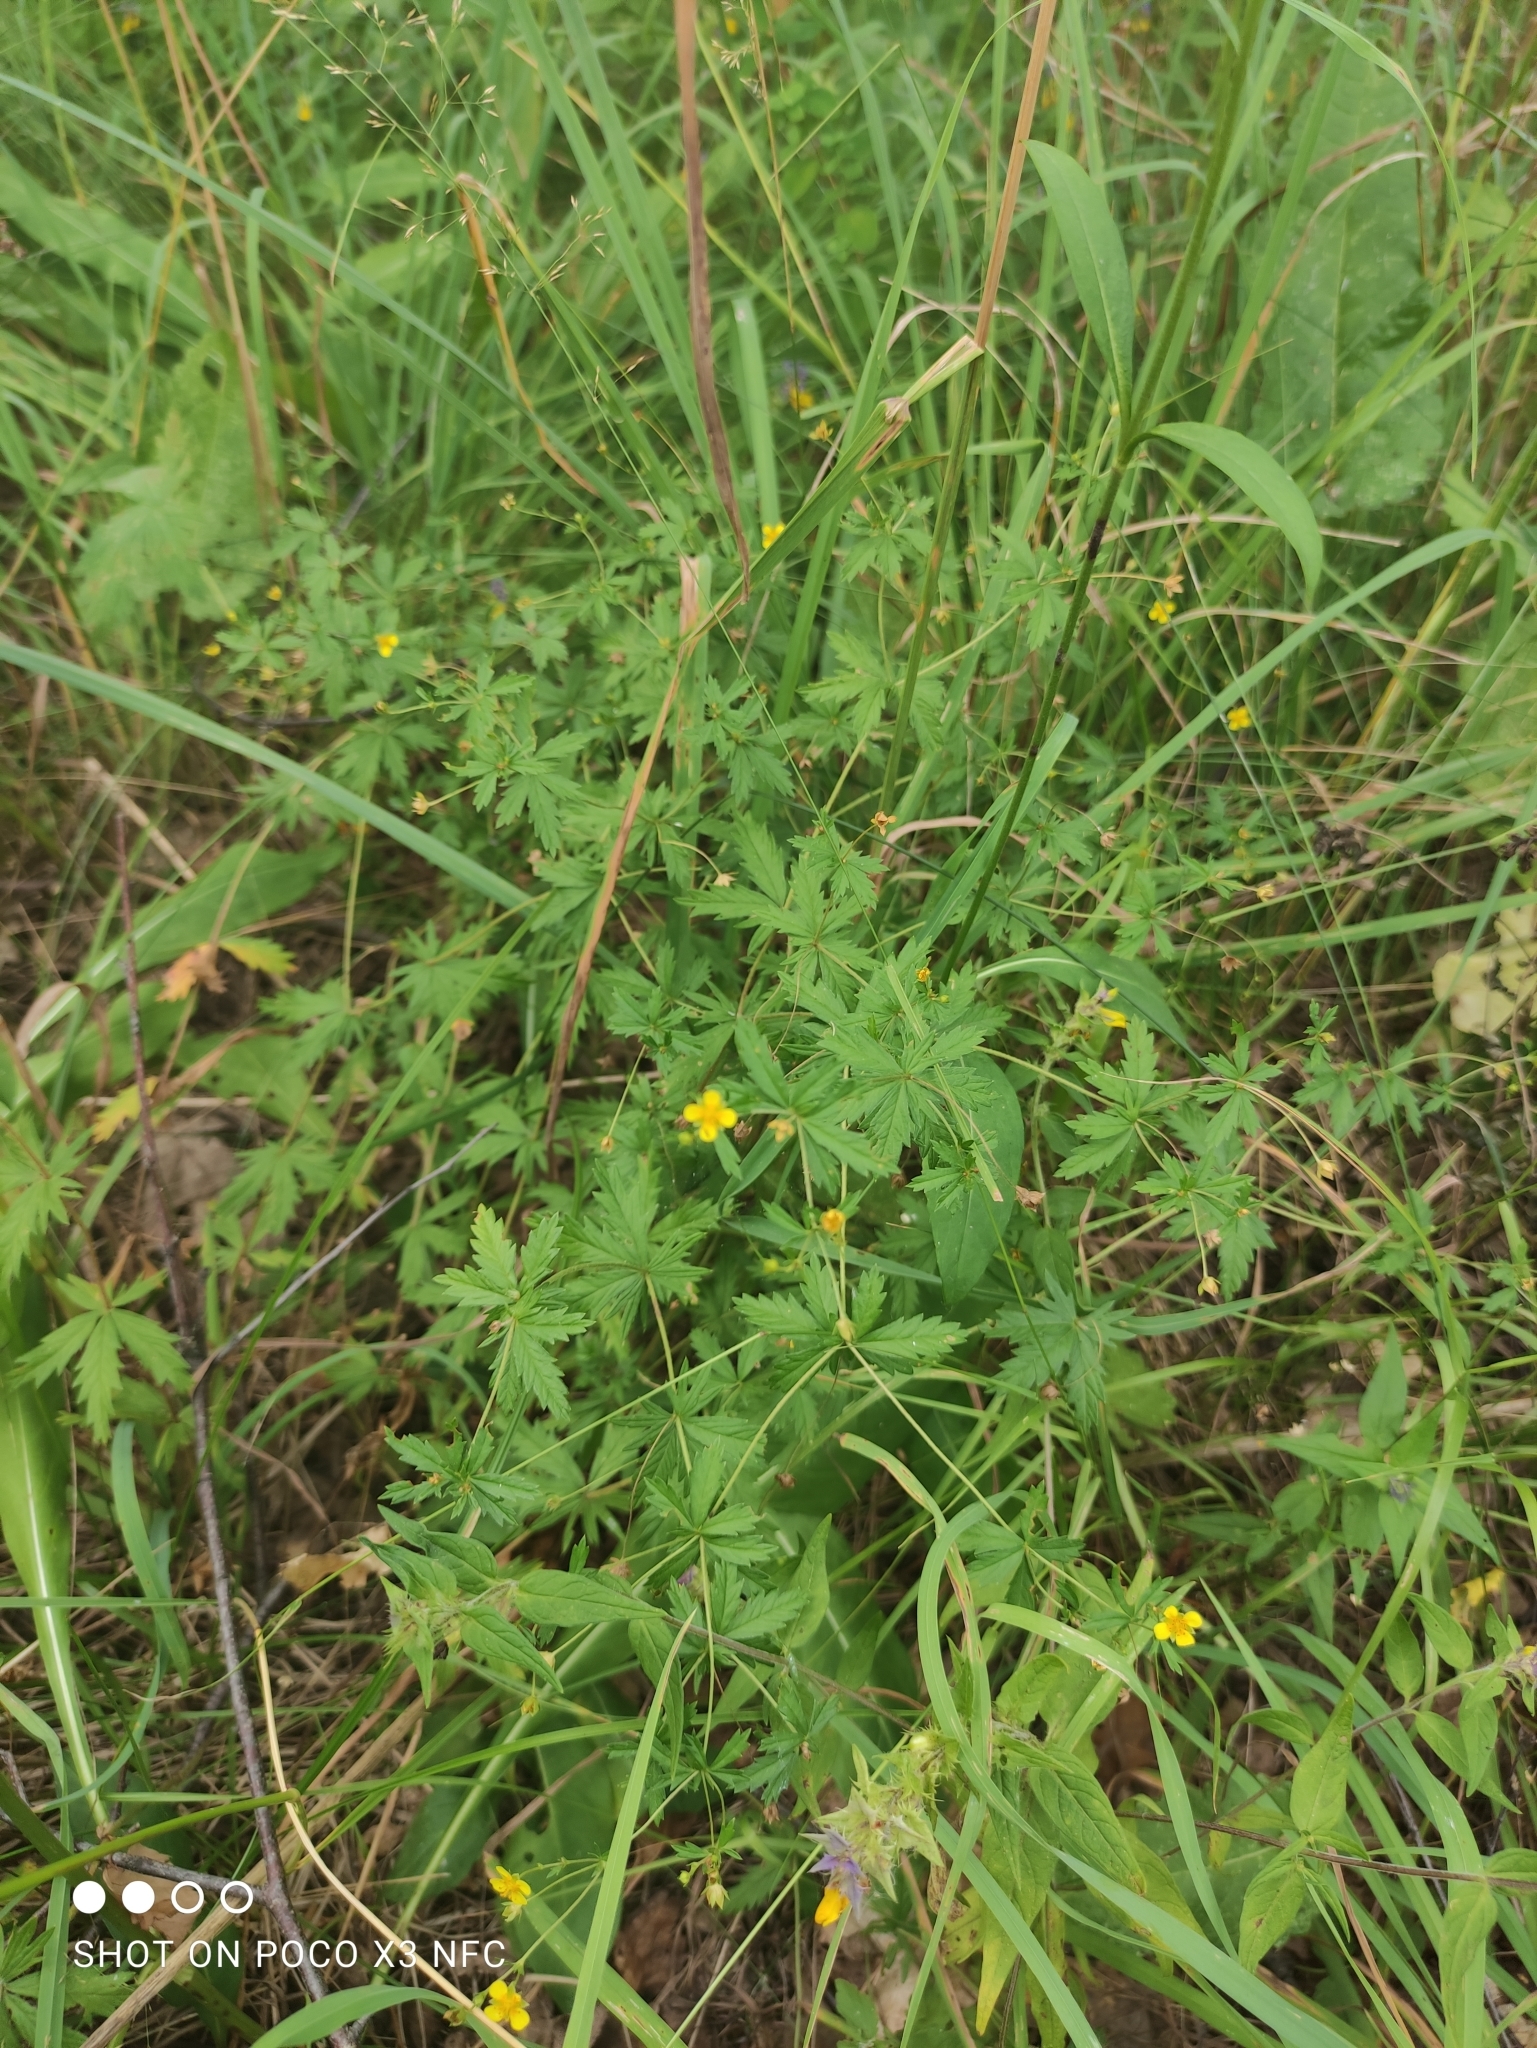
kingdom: Plantae
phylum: Tracheophyta
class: Magnoliopsida
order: Rosales
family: Rosaceae
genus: Potentilla
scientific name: Potentilla erecta
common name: Tormentil
